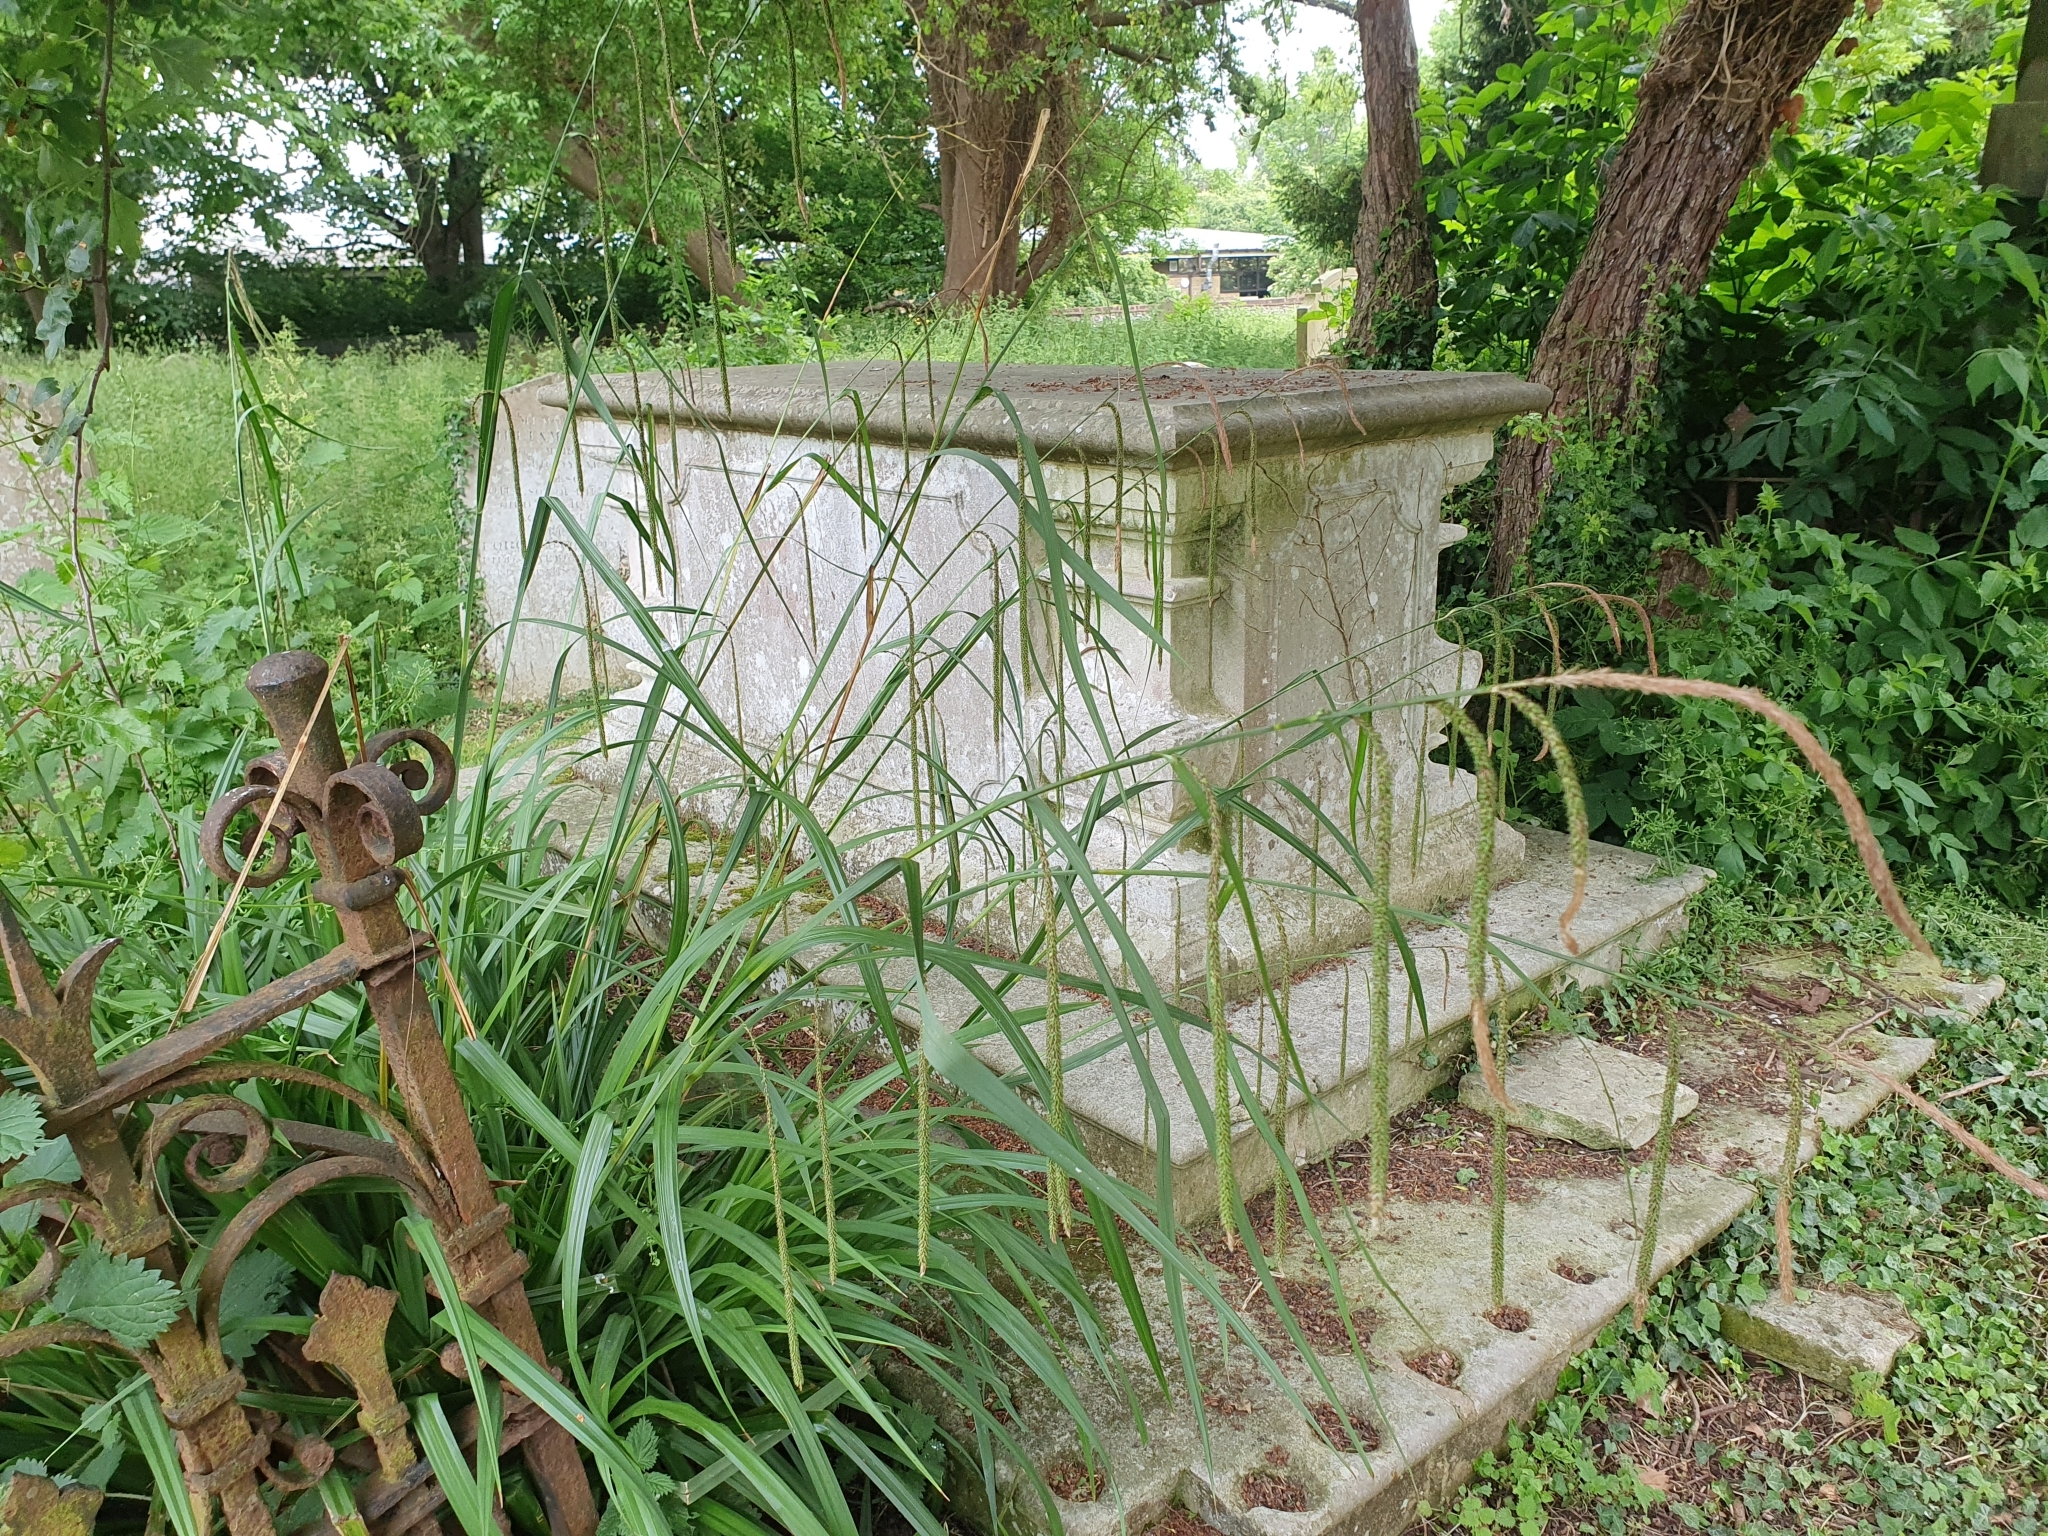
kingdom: Plantae
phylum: Tracheophyta
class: Liliopsida
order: Poales
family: Cyperaceae
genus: Carex
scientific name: Carex pendula
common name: Pendulous sedge
